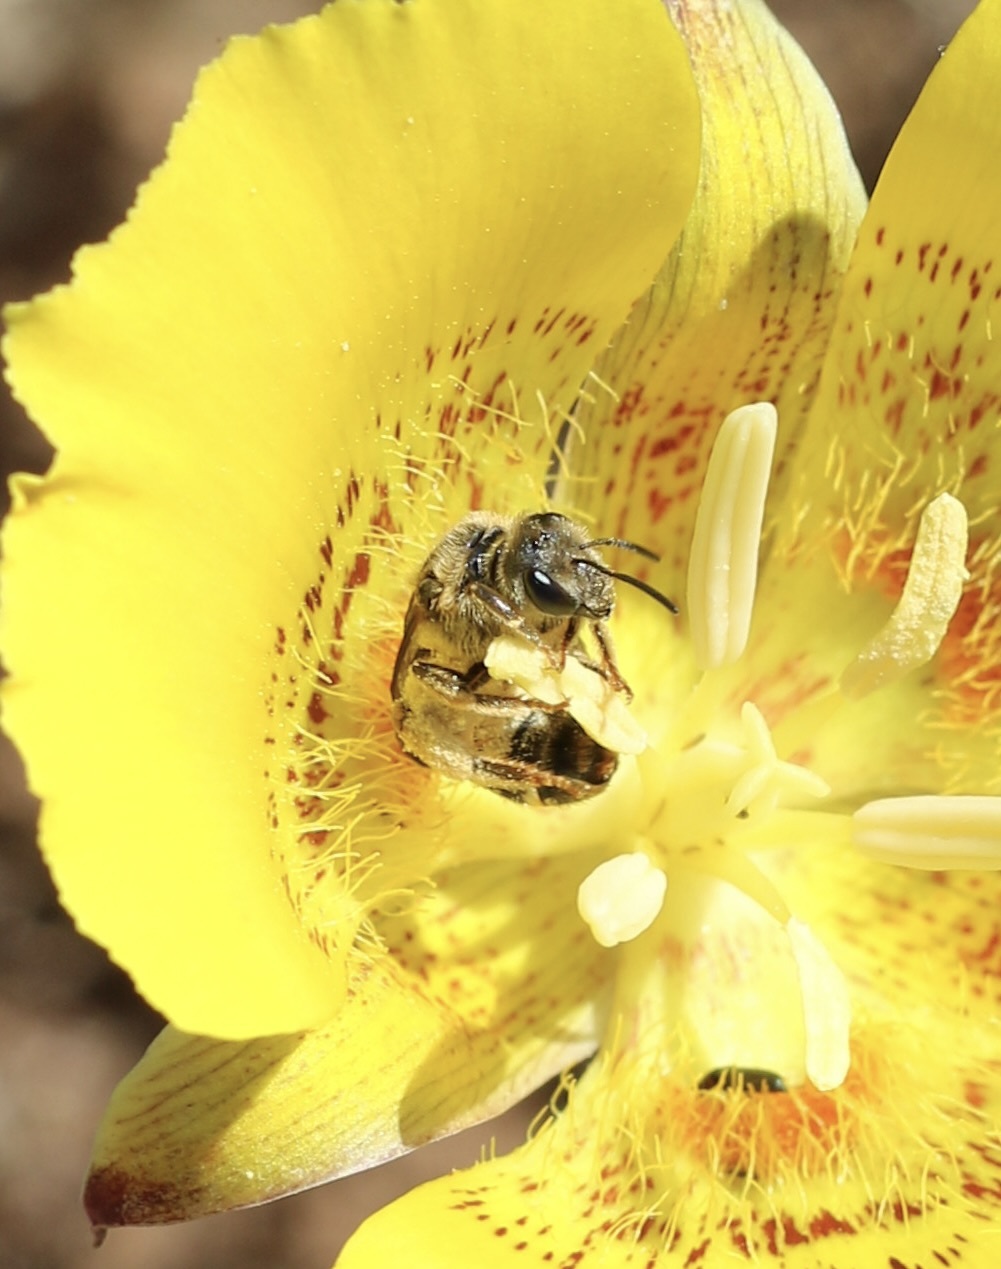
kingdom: Animalia
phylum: Arthropoda
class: Insecta
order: Hymenoptera
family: Halictidae
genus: Halictus
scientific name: Halictus farinosus
